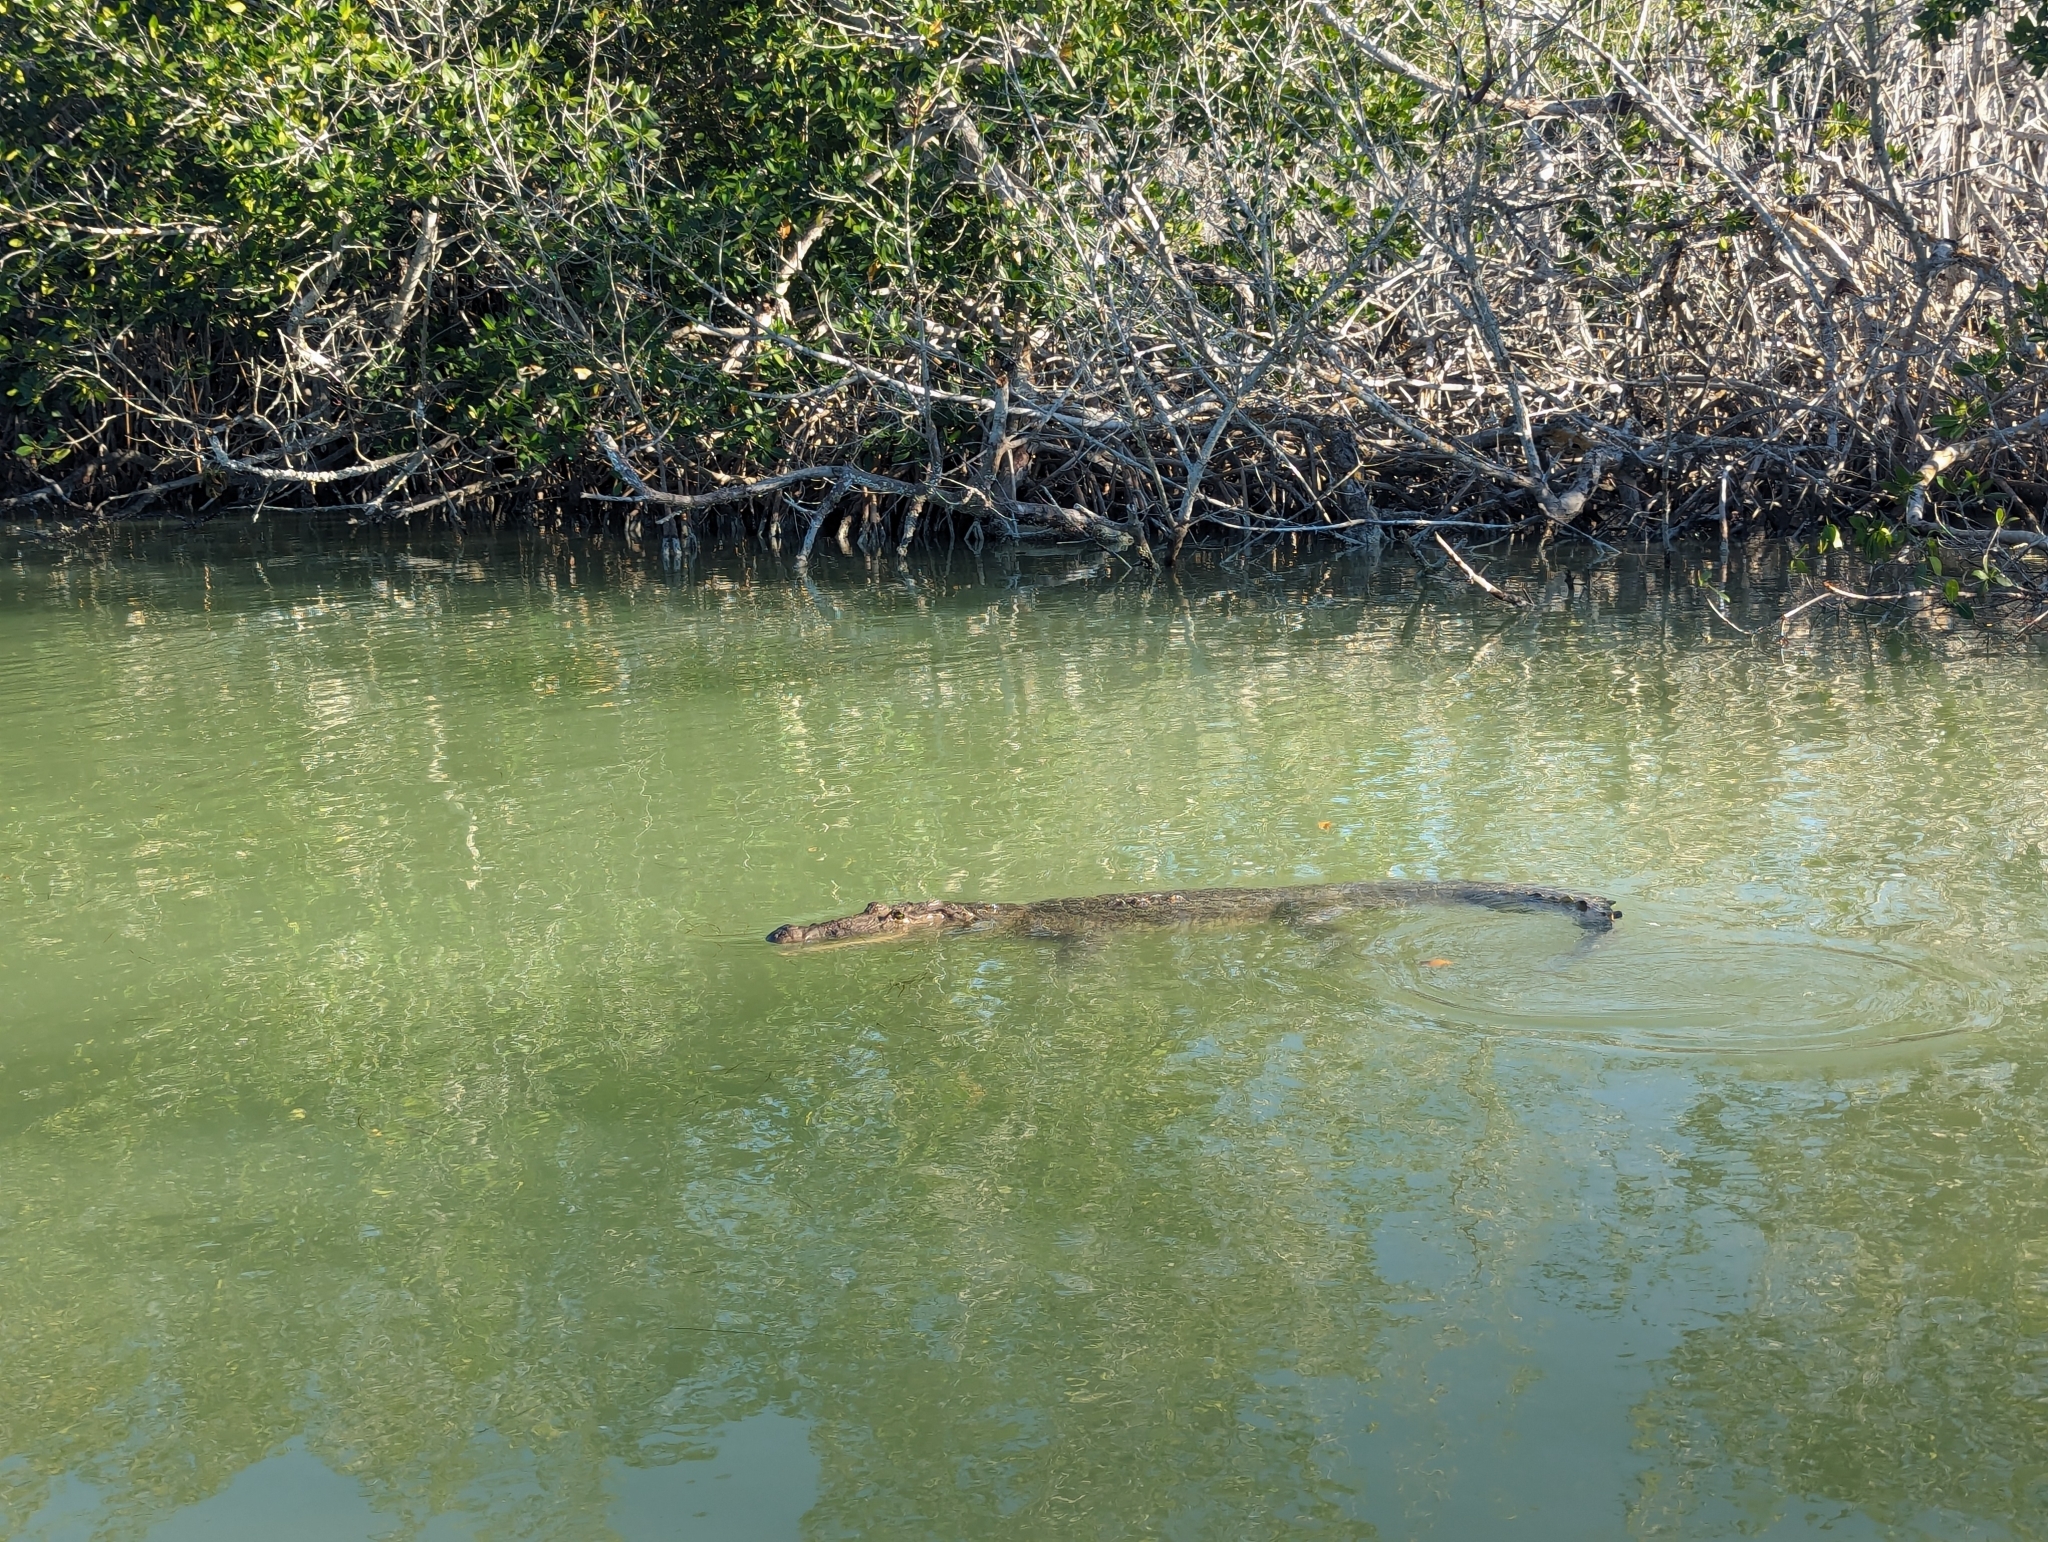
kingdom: Animalia
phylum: Chordata
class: Crocodylia
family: Crocodylidae
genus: Crocodylus
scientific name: Crocodylus moreletii
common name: Morelet's crocodile
